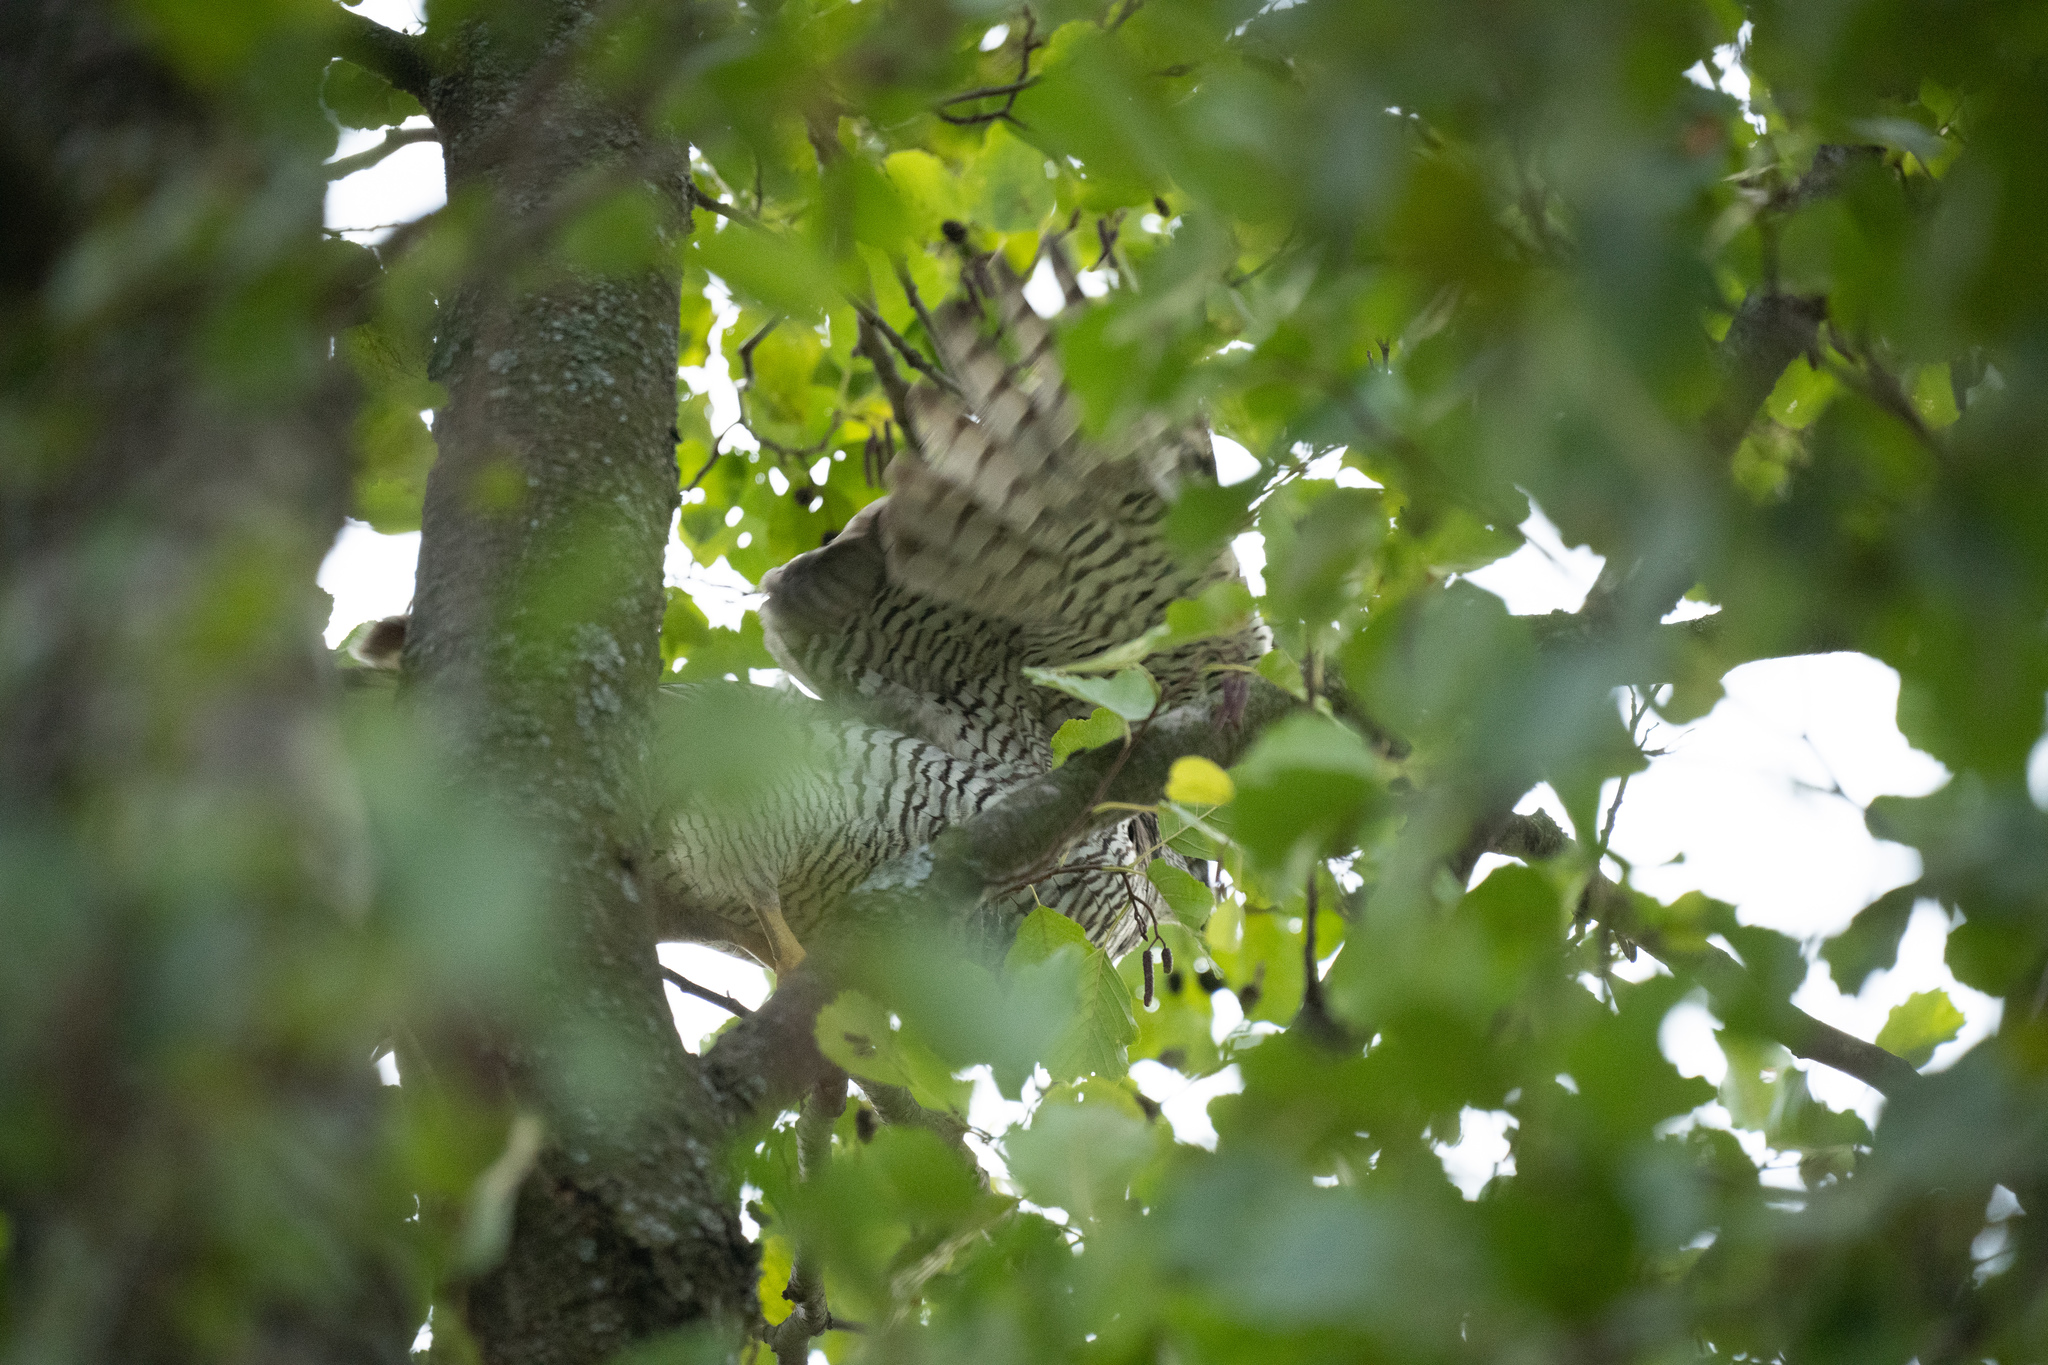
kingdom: Animalia
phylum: Chordata
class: Aves
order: Accipitriformes
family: Accipitridae
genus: Accipiter
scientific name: Accipiter gentilis
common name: Northern goshawk
